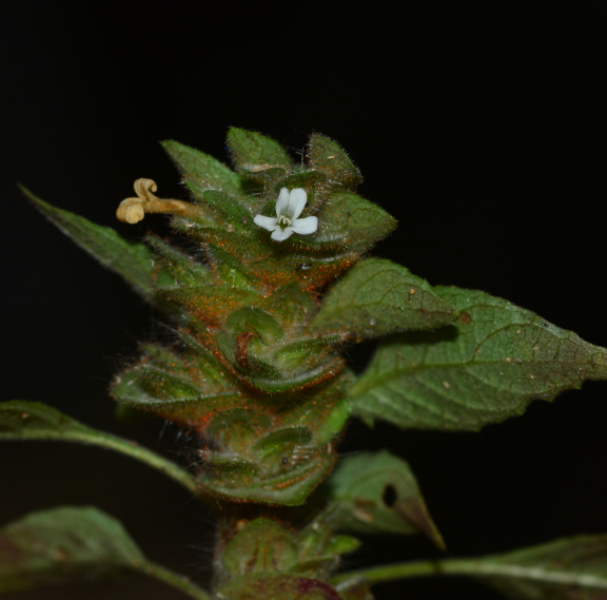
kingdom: Plantae
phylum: Tracheophyta
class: Magnoliopsida
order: Lamiales
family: Acanthaceae
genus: Phaulopsis
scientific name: Phaulopsis dorsiflora
